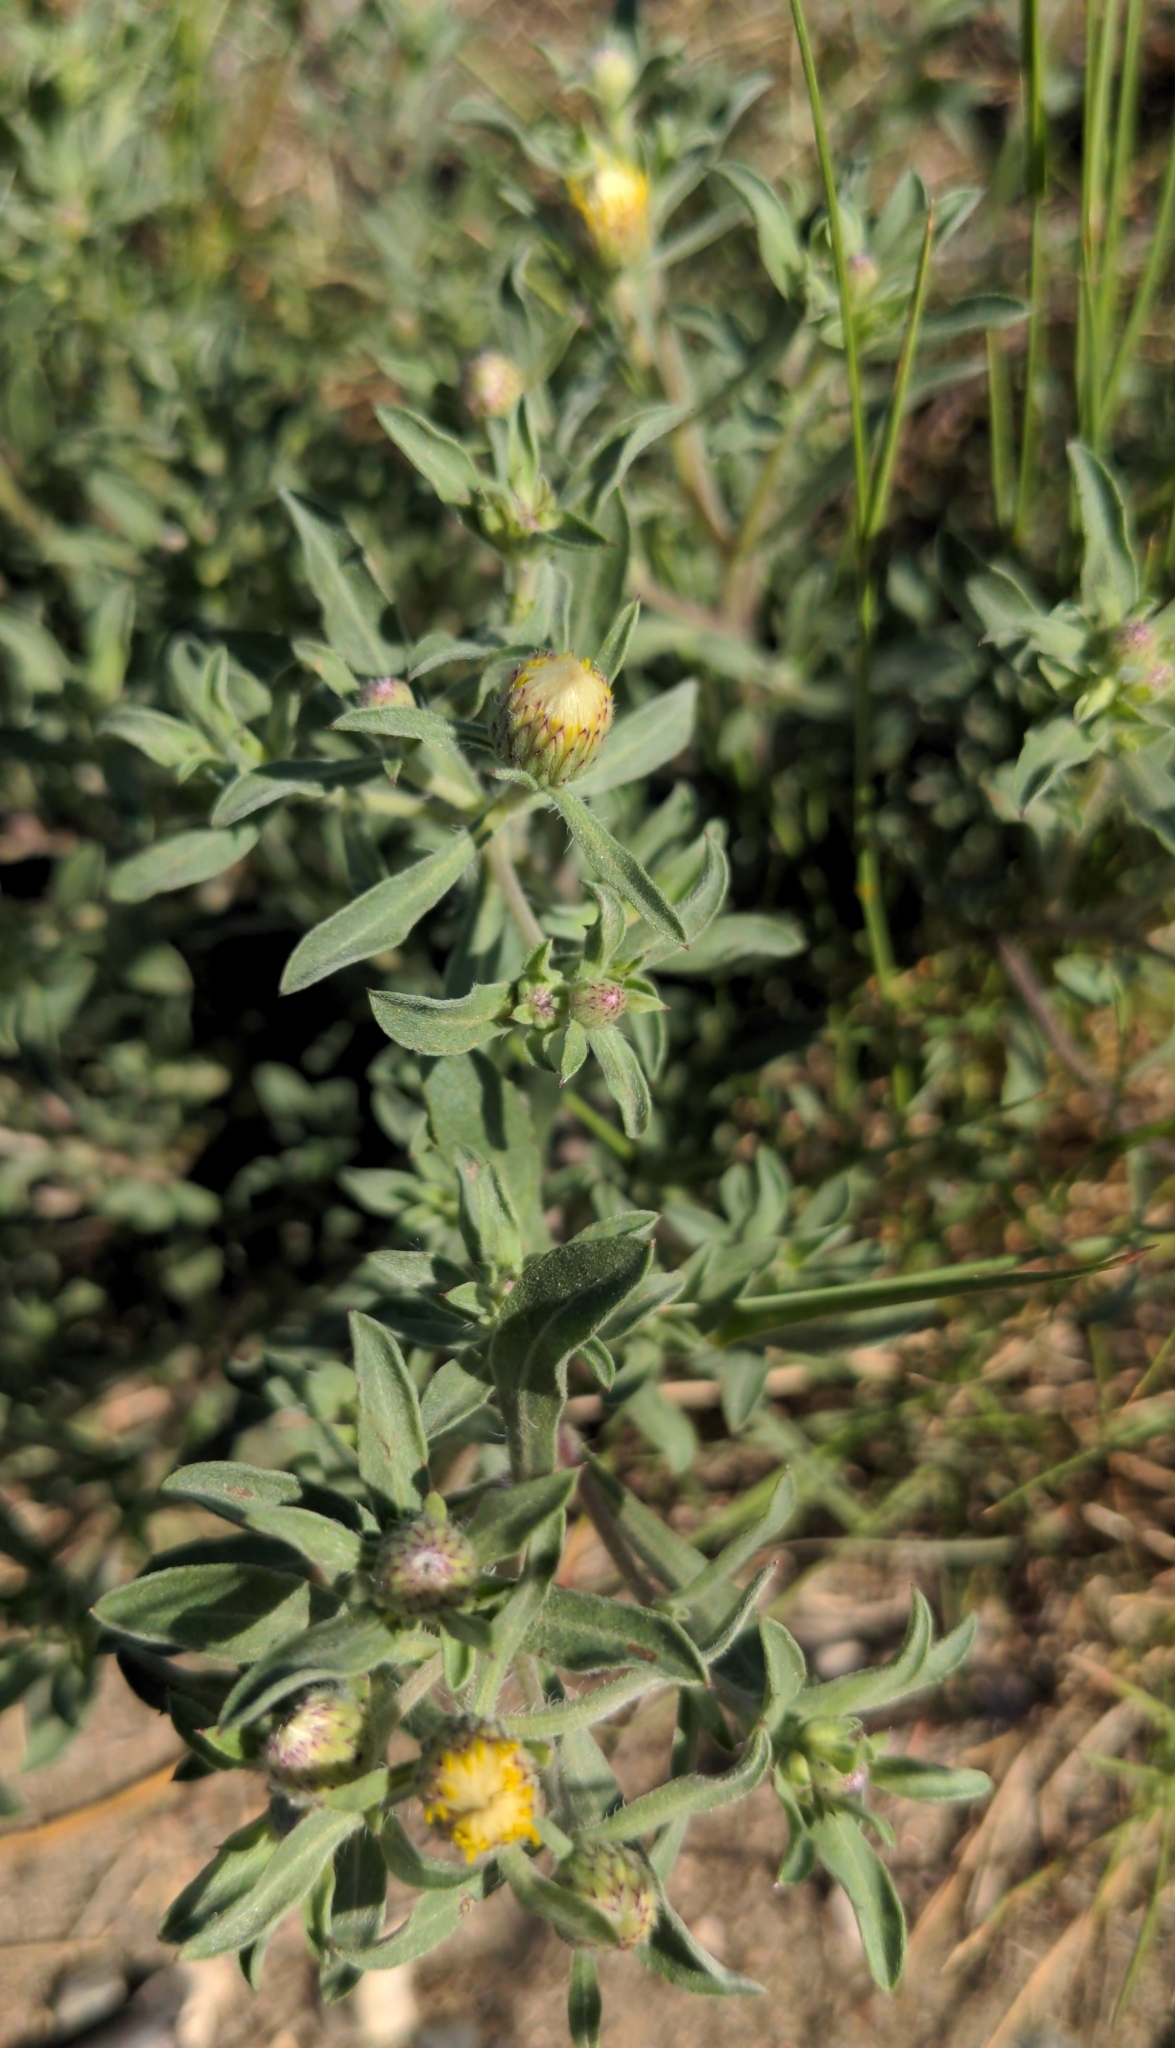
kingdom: Plantae
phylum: Tracheophyta
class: Magnoliopsida
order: Asterales
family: Asteraceae
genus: Heterotheca
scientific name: Heterotheca villosa
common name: Hairy false goldenaster
